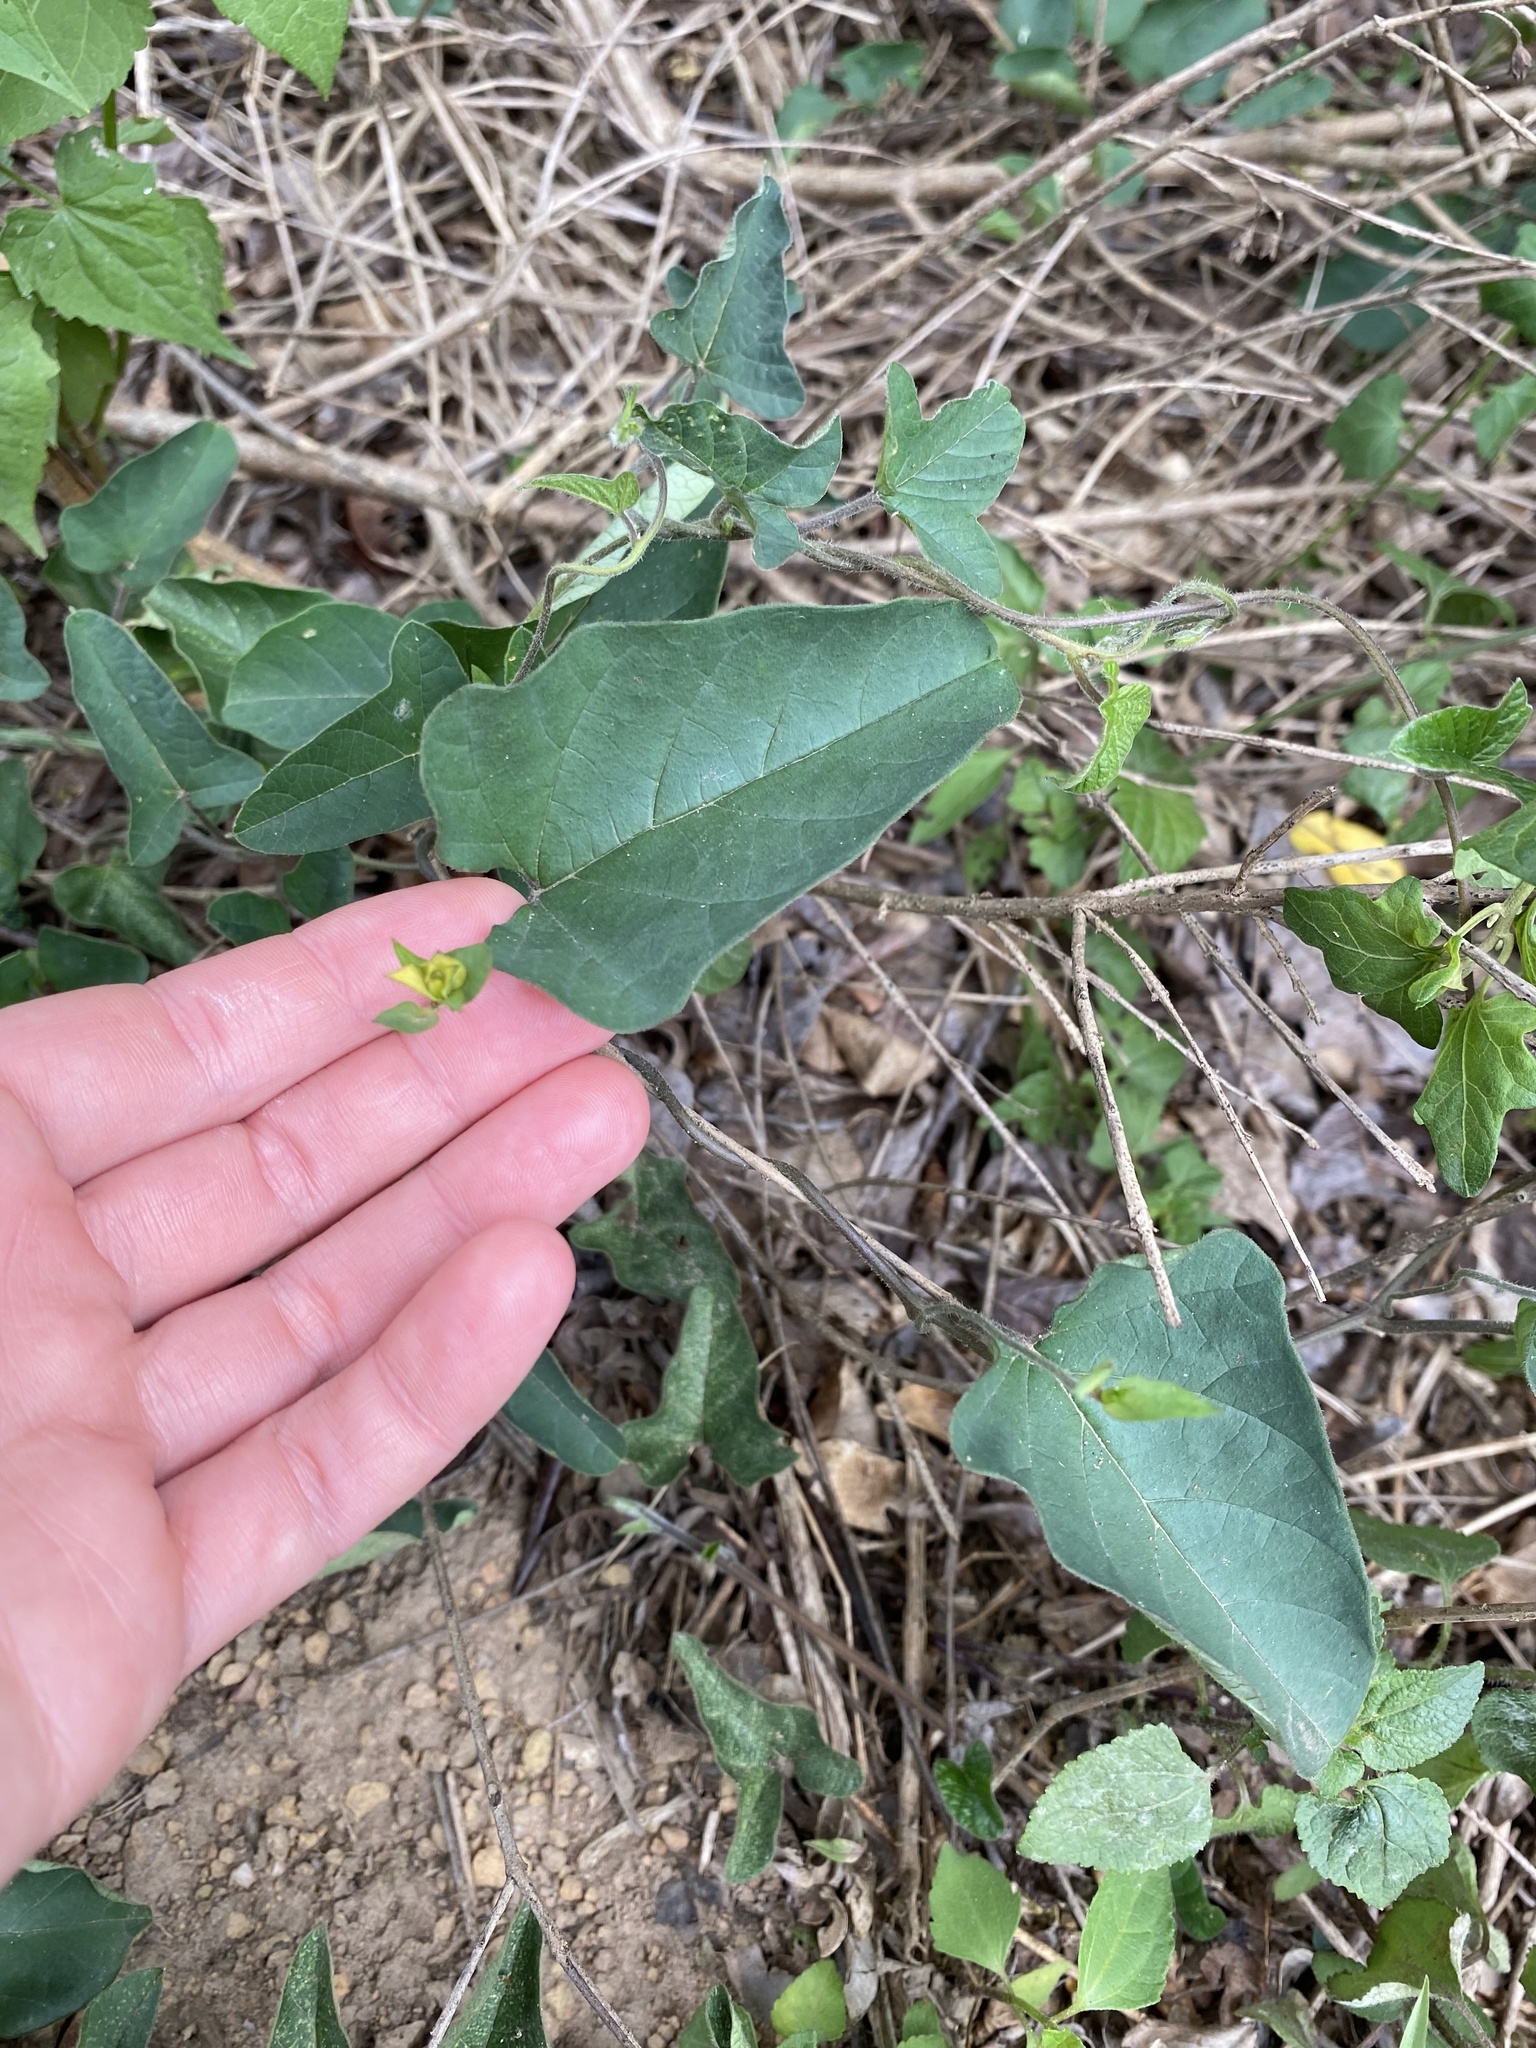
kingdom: Plantae
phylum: Tracheophyta
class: Magnoliopsida
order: Solanales
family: Convolvulaceae
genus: Hewittia
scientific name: Hewittia malabarica
